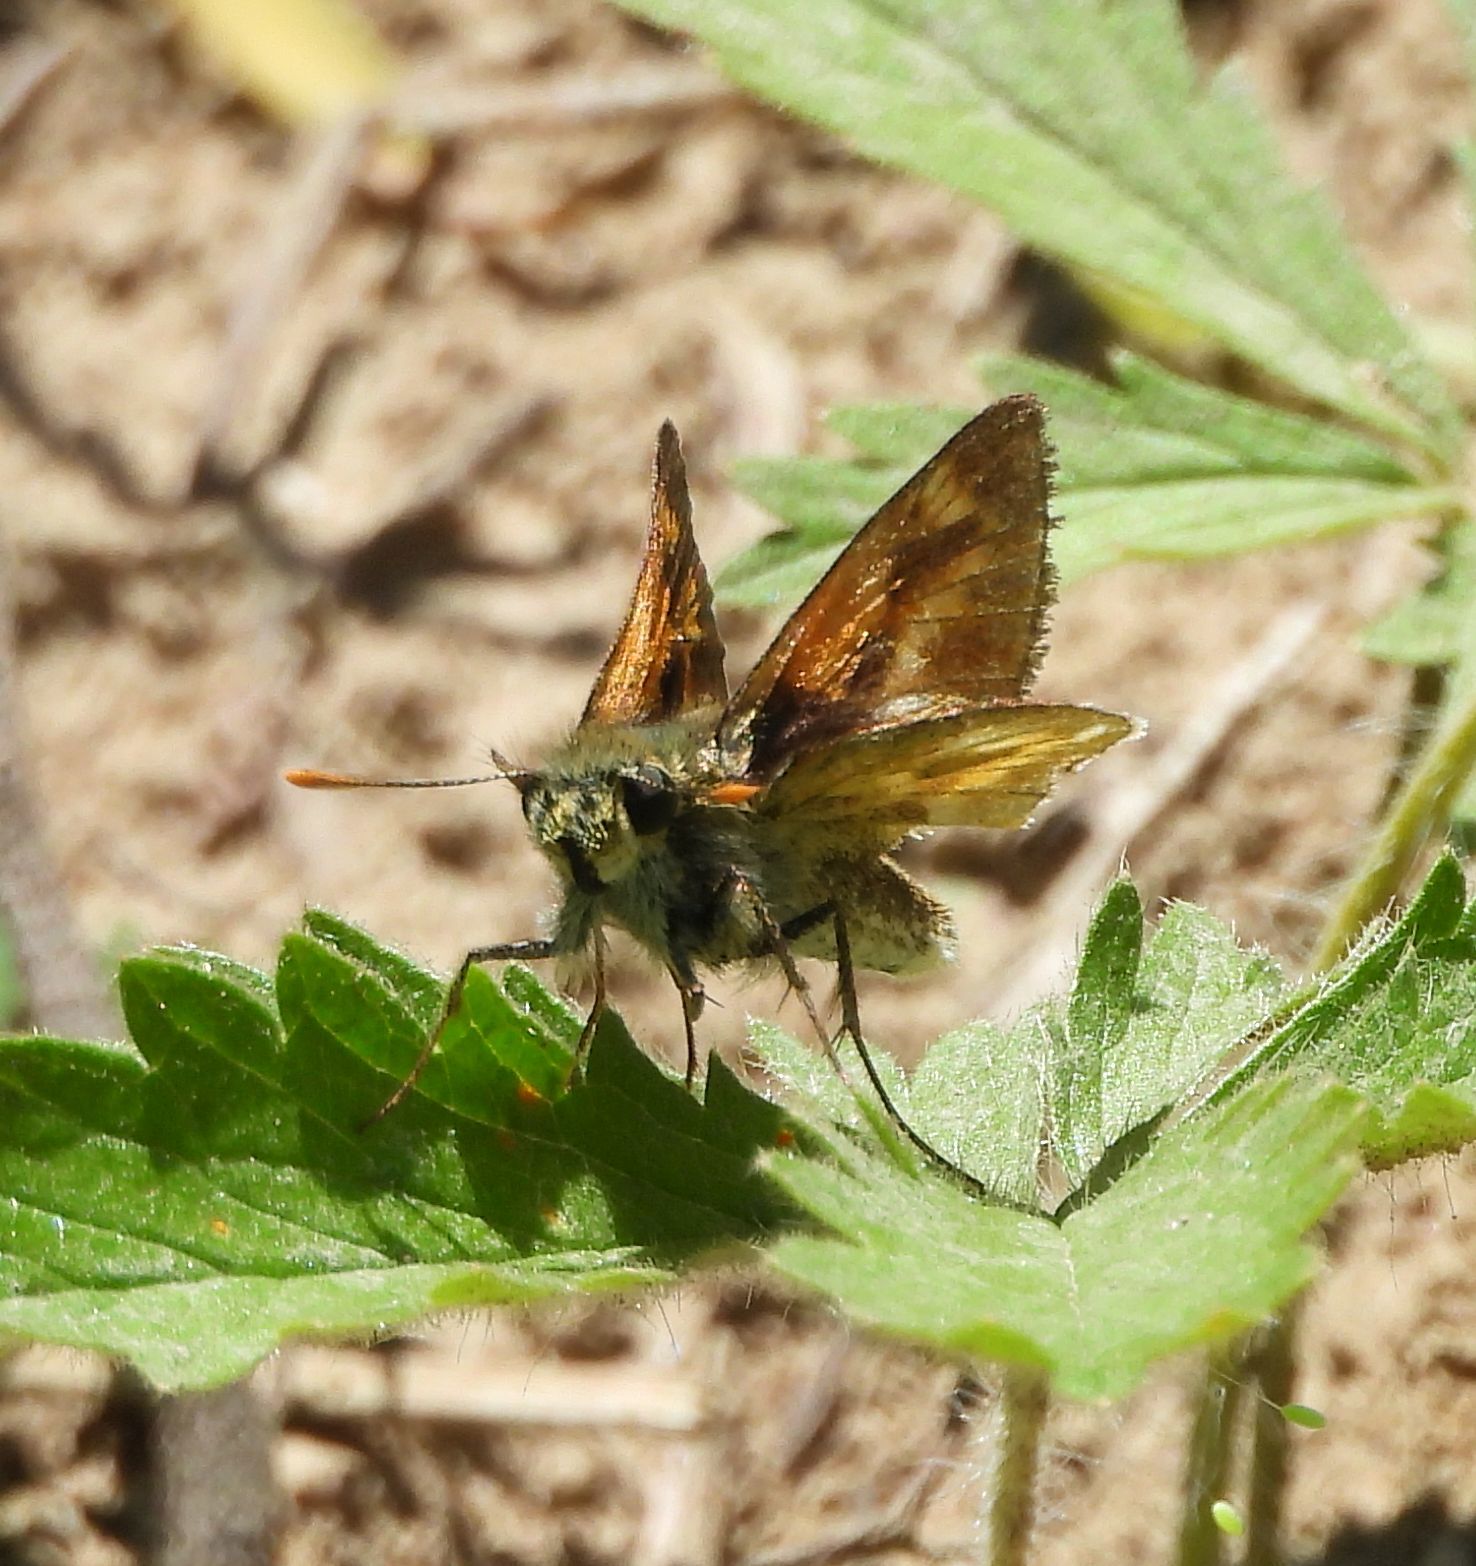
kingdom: Animalia
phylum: Arthropoda
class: Insecta
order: Lepidoptera
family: Hesperiidae
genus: Polites
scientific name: Polites mystic
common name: Long dash
